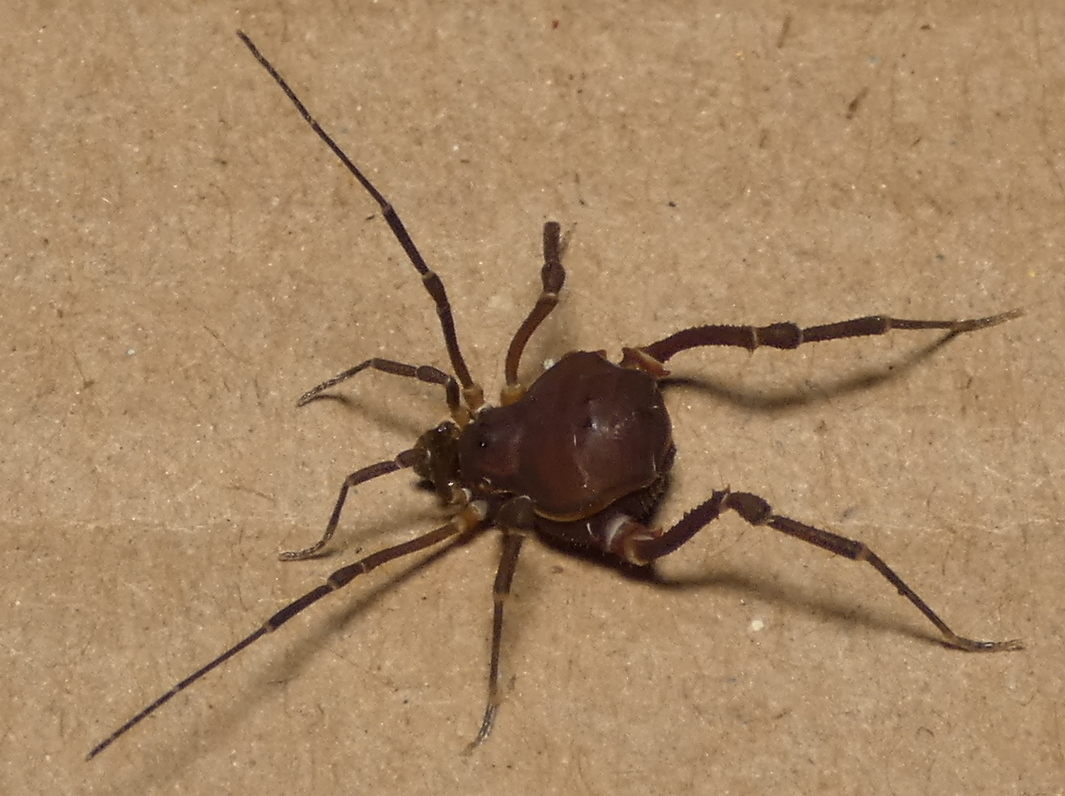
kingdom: Animalia
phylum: Arthropoda
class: Arachnida
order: Opiliones
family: Gonyleptidae
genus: Pseudopucrolia
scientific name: Pseudopucrolia discrepans
